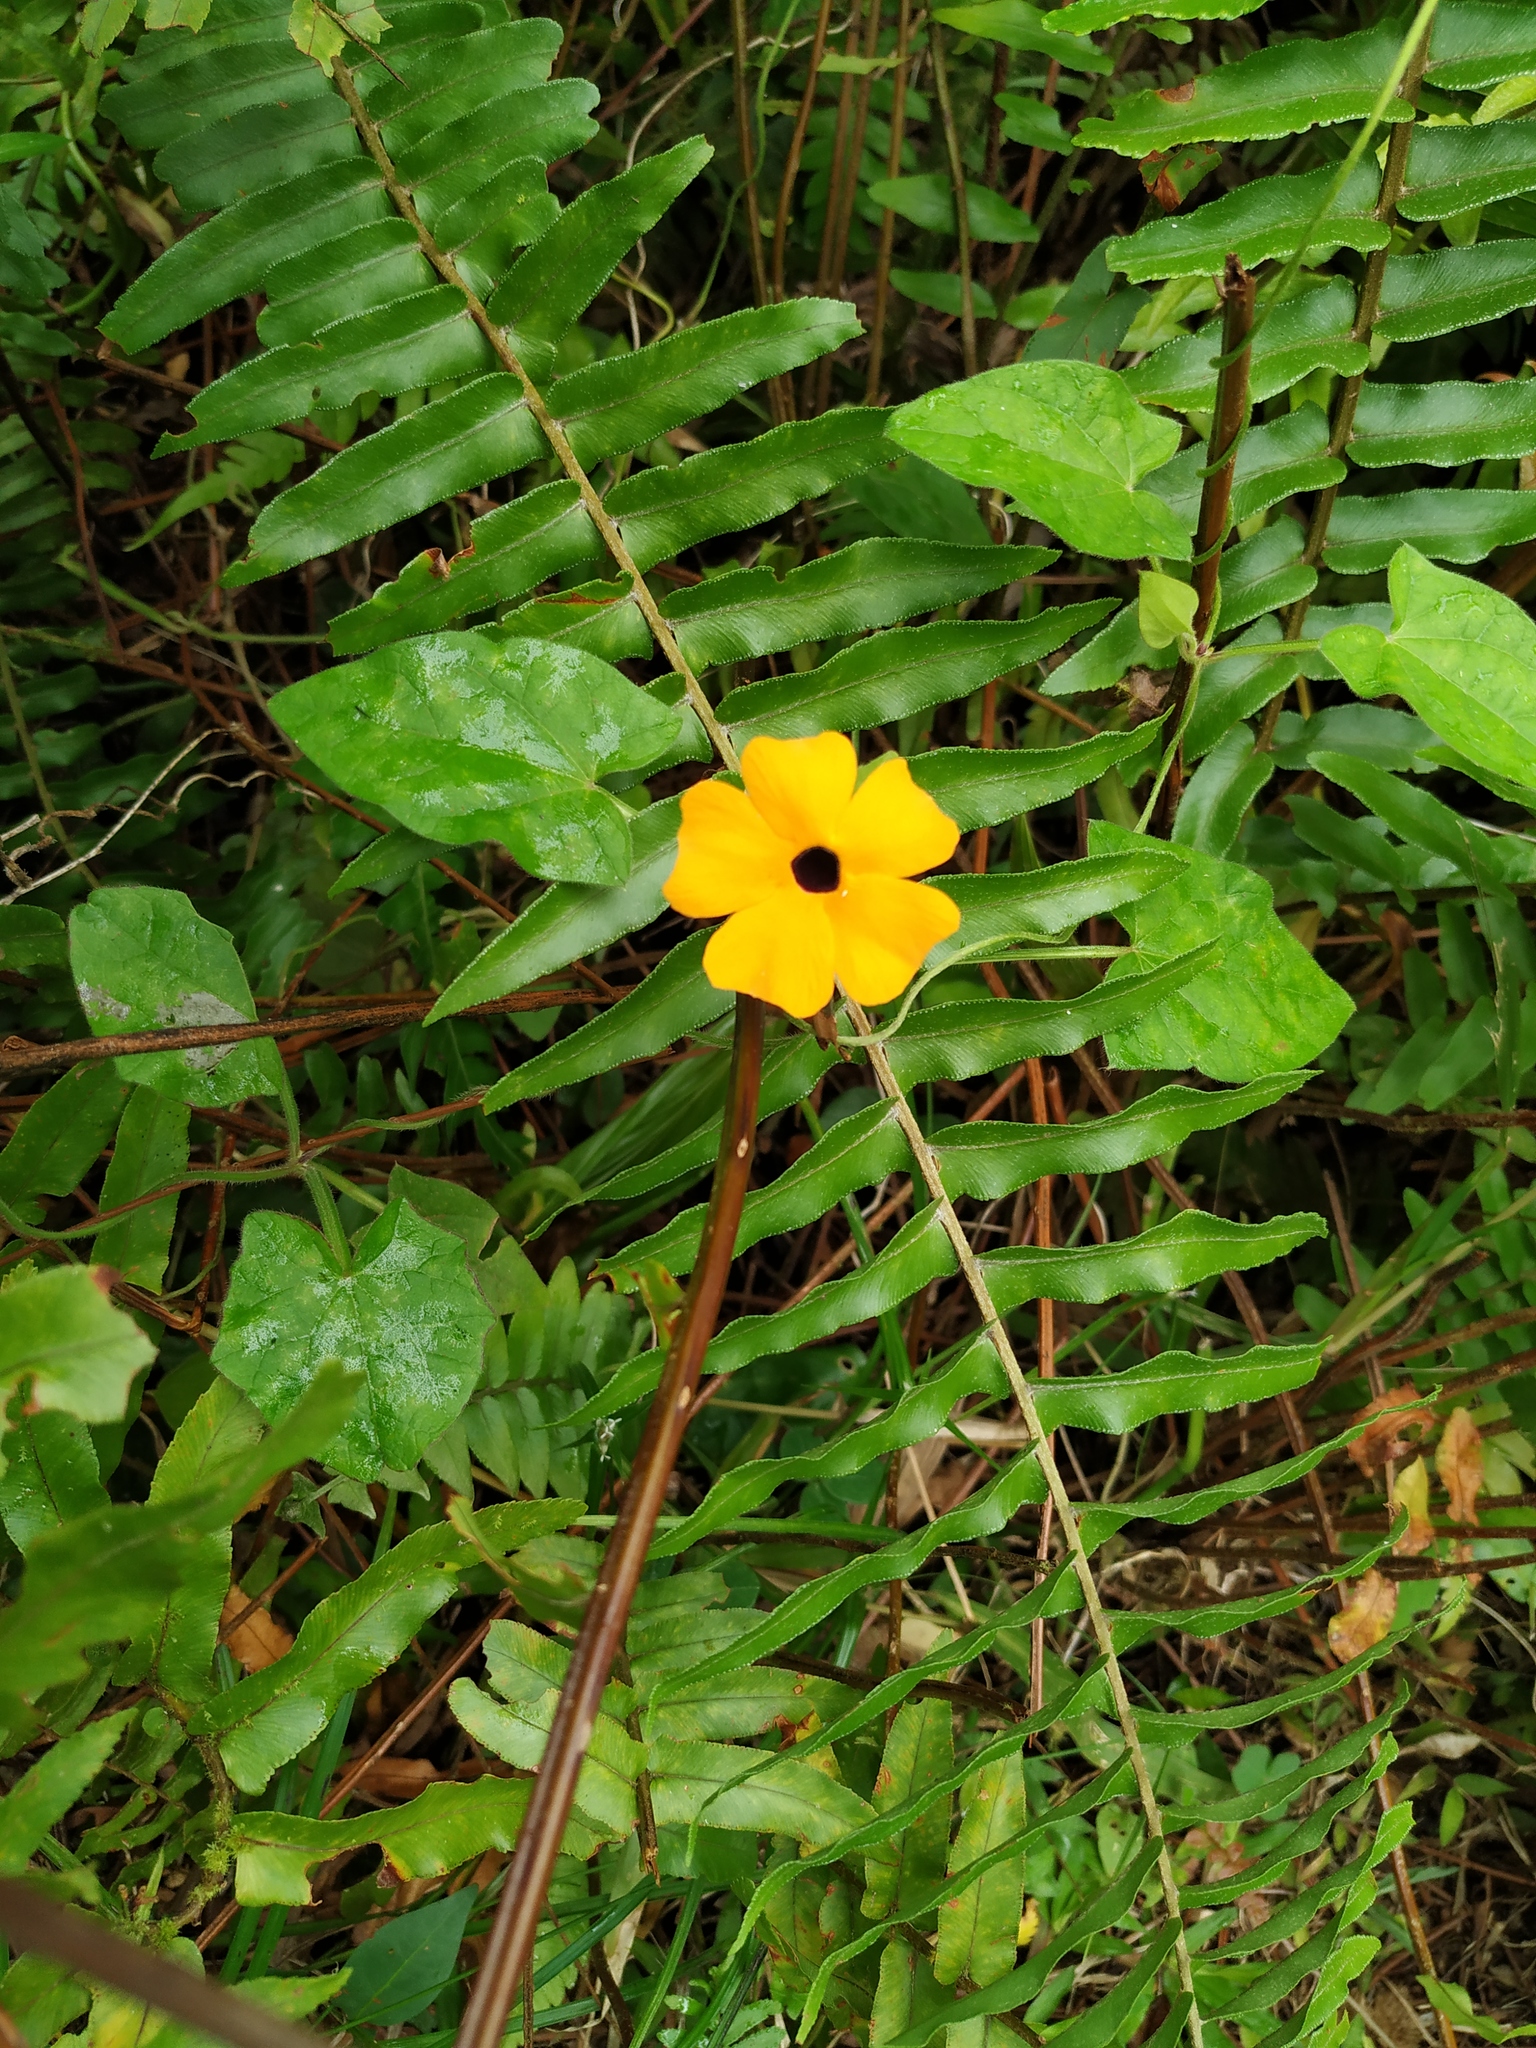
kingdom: Plantae
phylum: Tracheophyta
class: Magnoliopsida
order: Lamiales
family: Acanthaceae
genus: Thunbergia
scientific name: Thunbergia alata
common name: Blackeyed susan vine
